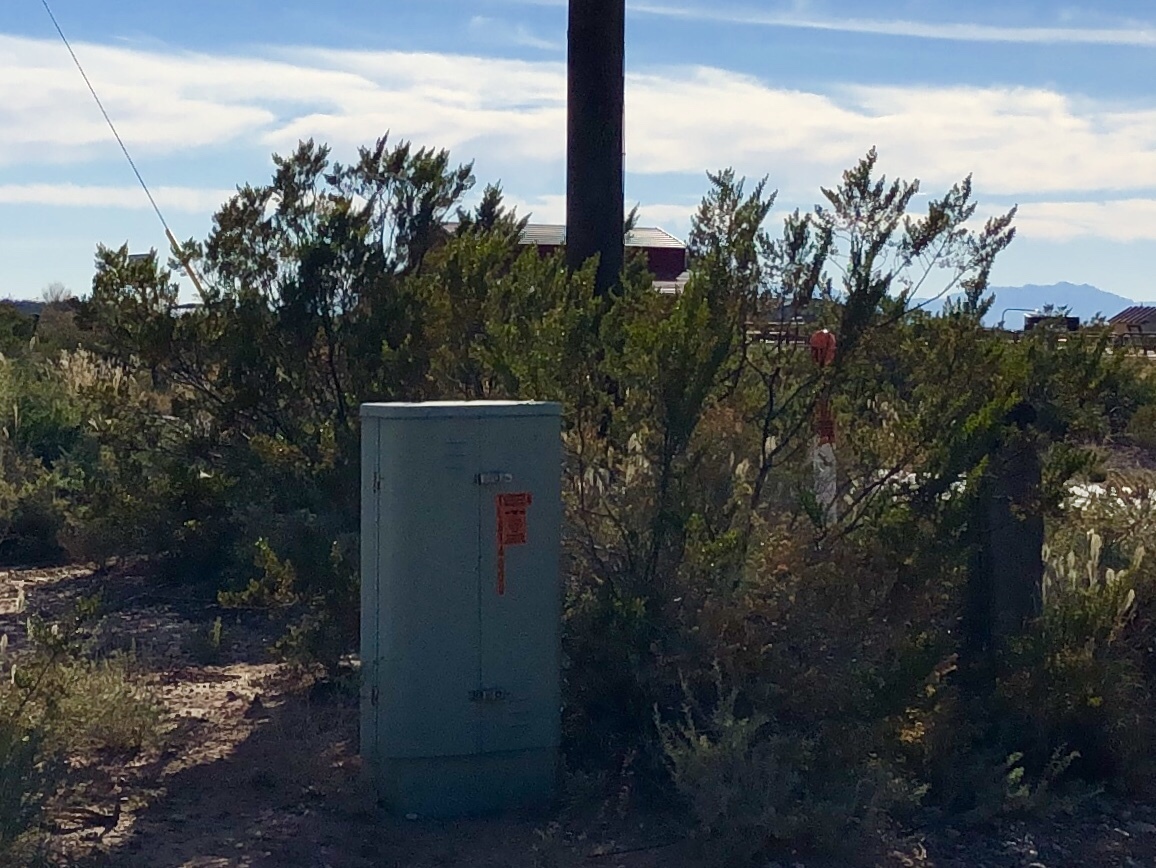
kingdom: Plantae
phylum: Tracheophyta
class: Magnoliopsida
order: Zygophyllales
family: Zygophyllaceae
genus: Larrea
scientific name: Larrea tridentata
